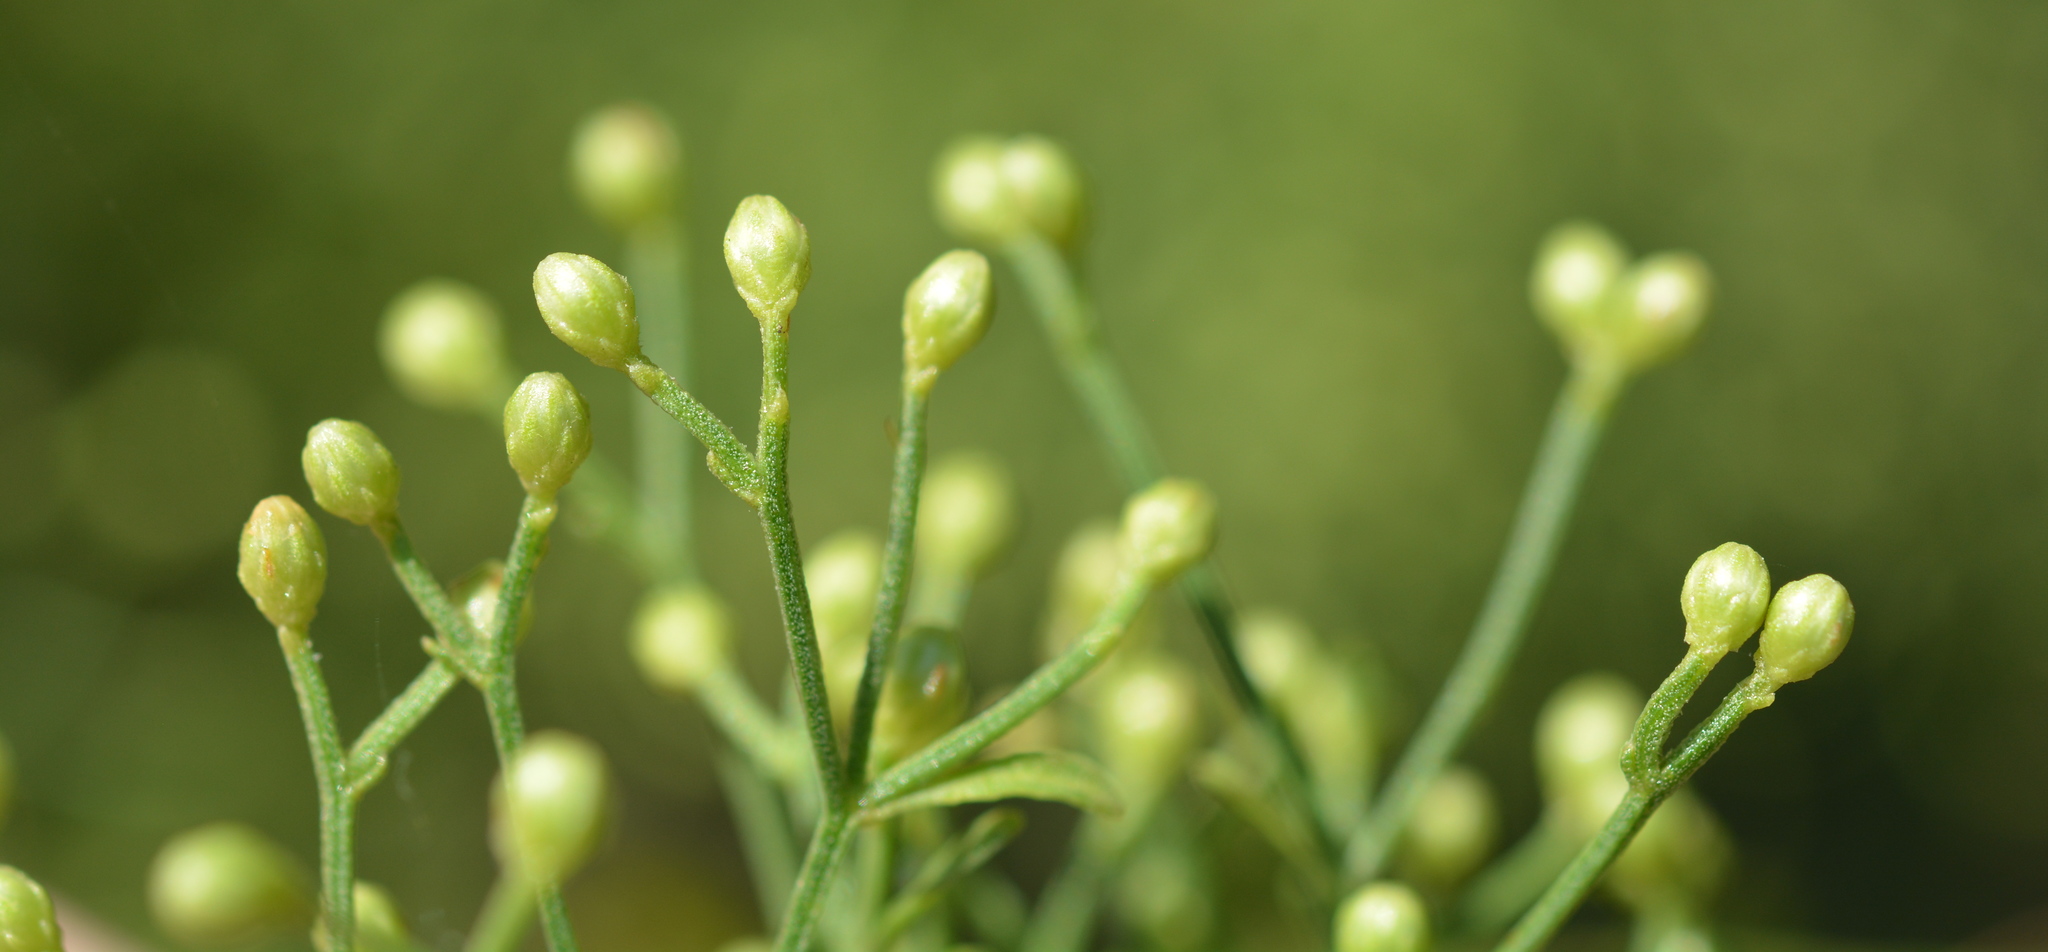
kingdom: Plantae
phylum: Tracheophyta
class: Magnoliopsida
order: Asterales
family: Asteraceae
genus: Baccharis
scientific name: Baccharis halimifolia
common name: Eastern baccharis
